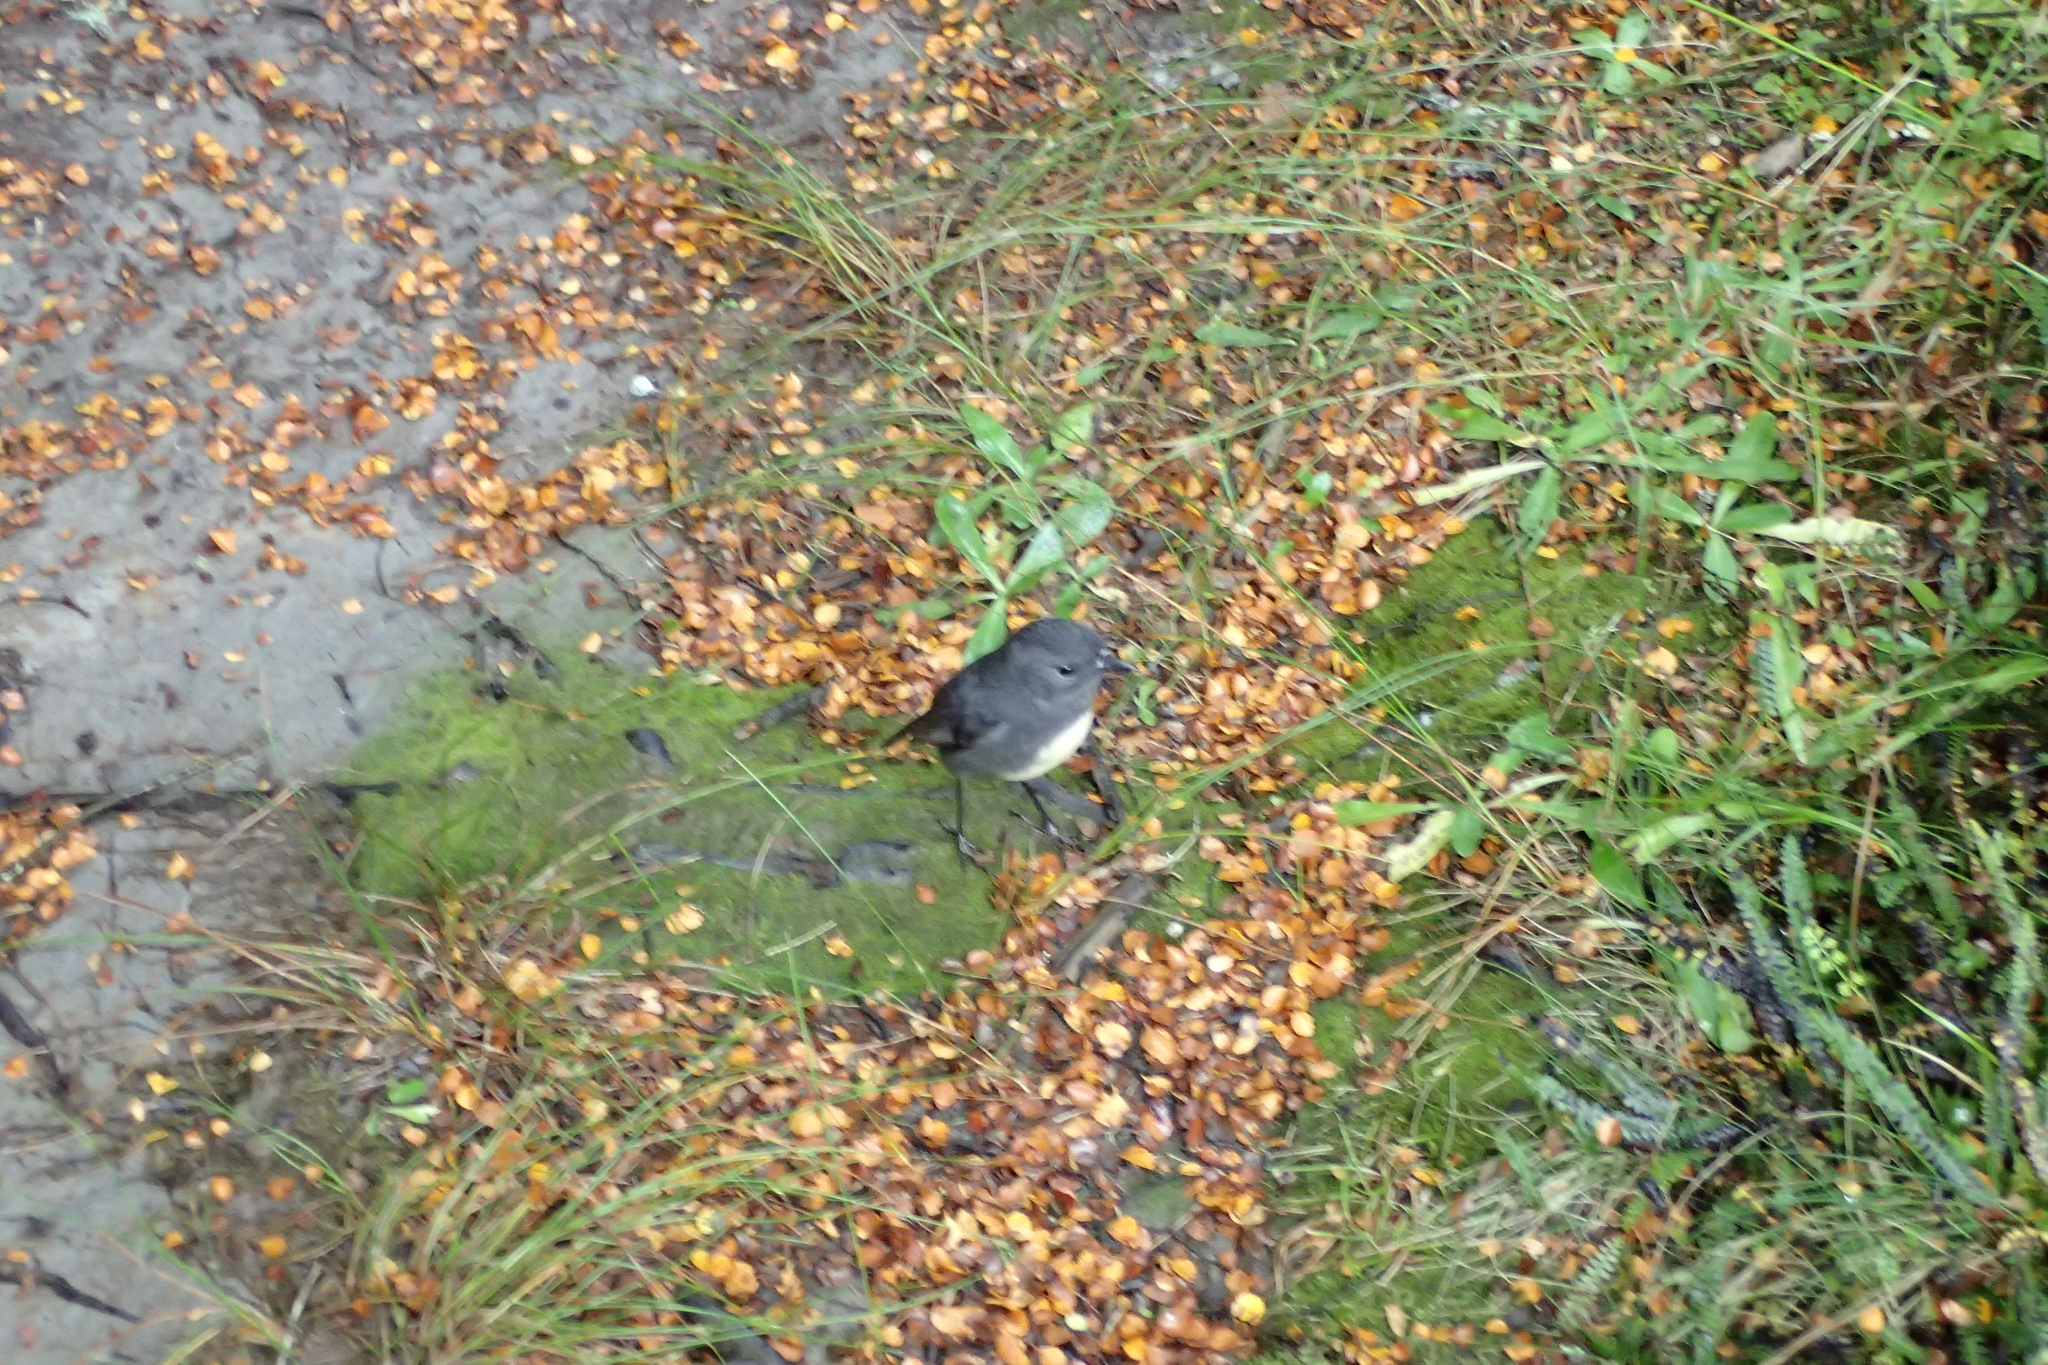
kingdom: Animalia
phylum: Chordata
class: Aves
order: Passeriformes
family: Petroicidae
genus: Petroica
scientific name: Petroica australis
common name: New zealand robin
